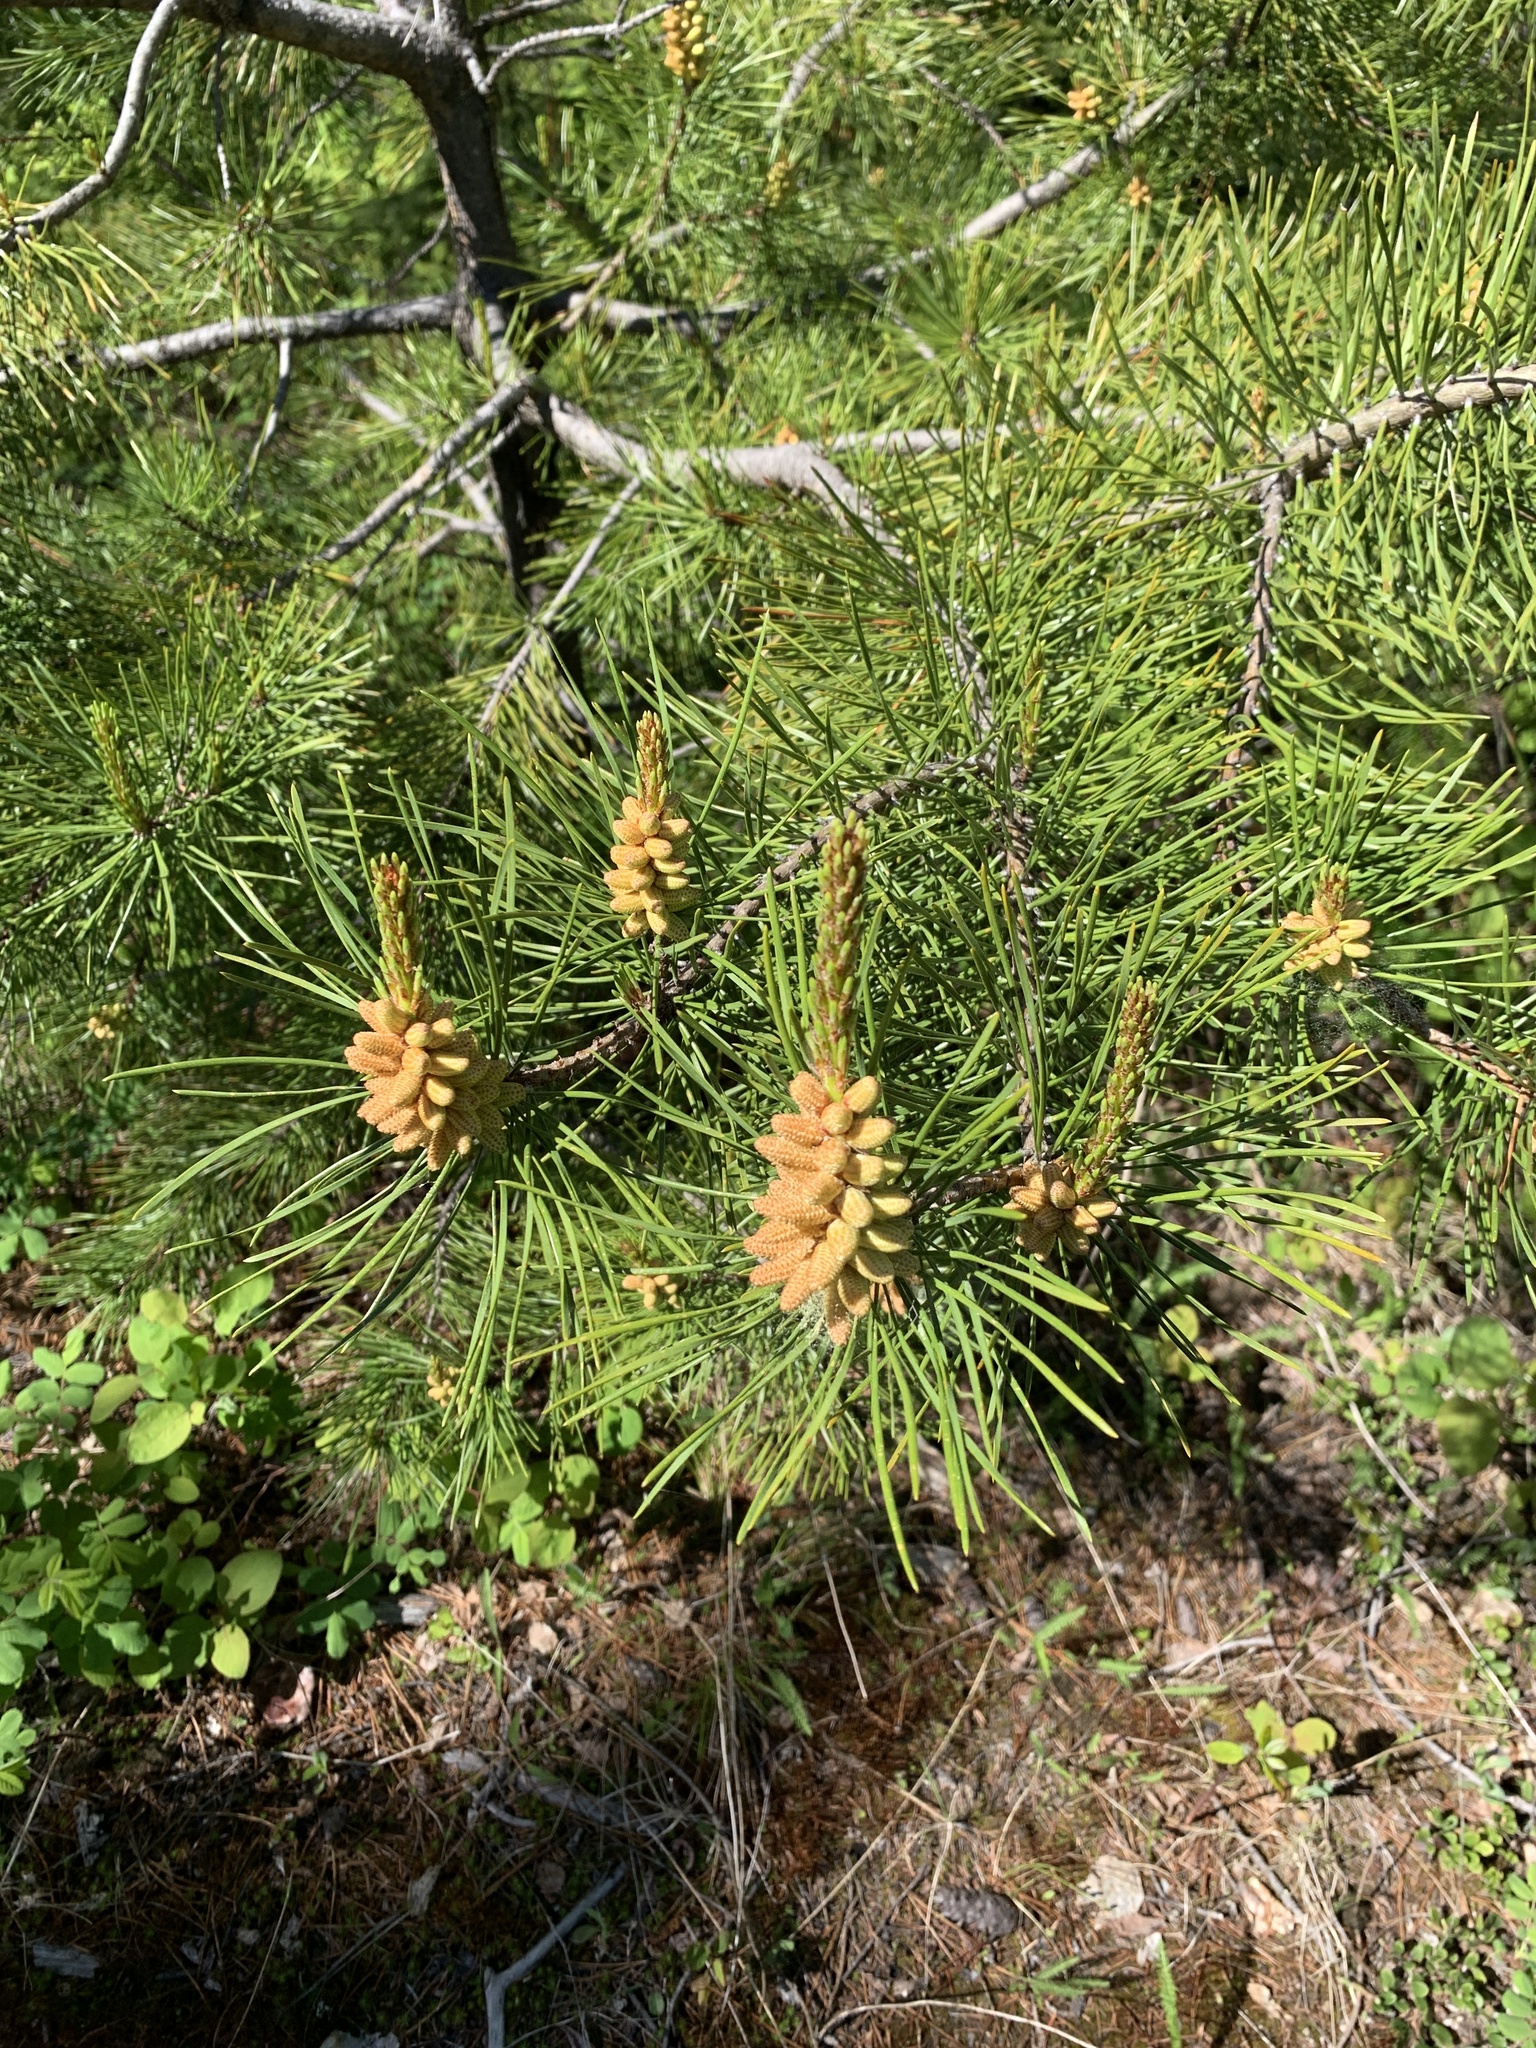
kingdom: Plantae
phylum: Tracheophyta
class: Pinopsida
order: Pinales
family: Pinaceae
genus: Pinus
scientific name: Pinus contorta
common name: Lodgepole pine
